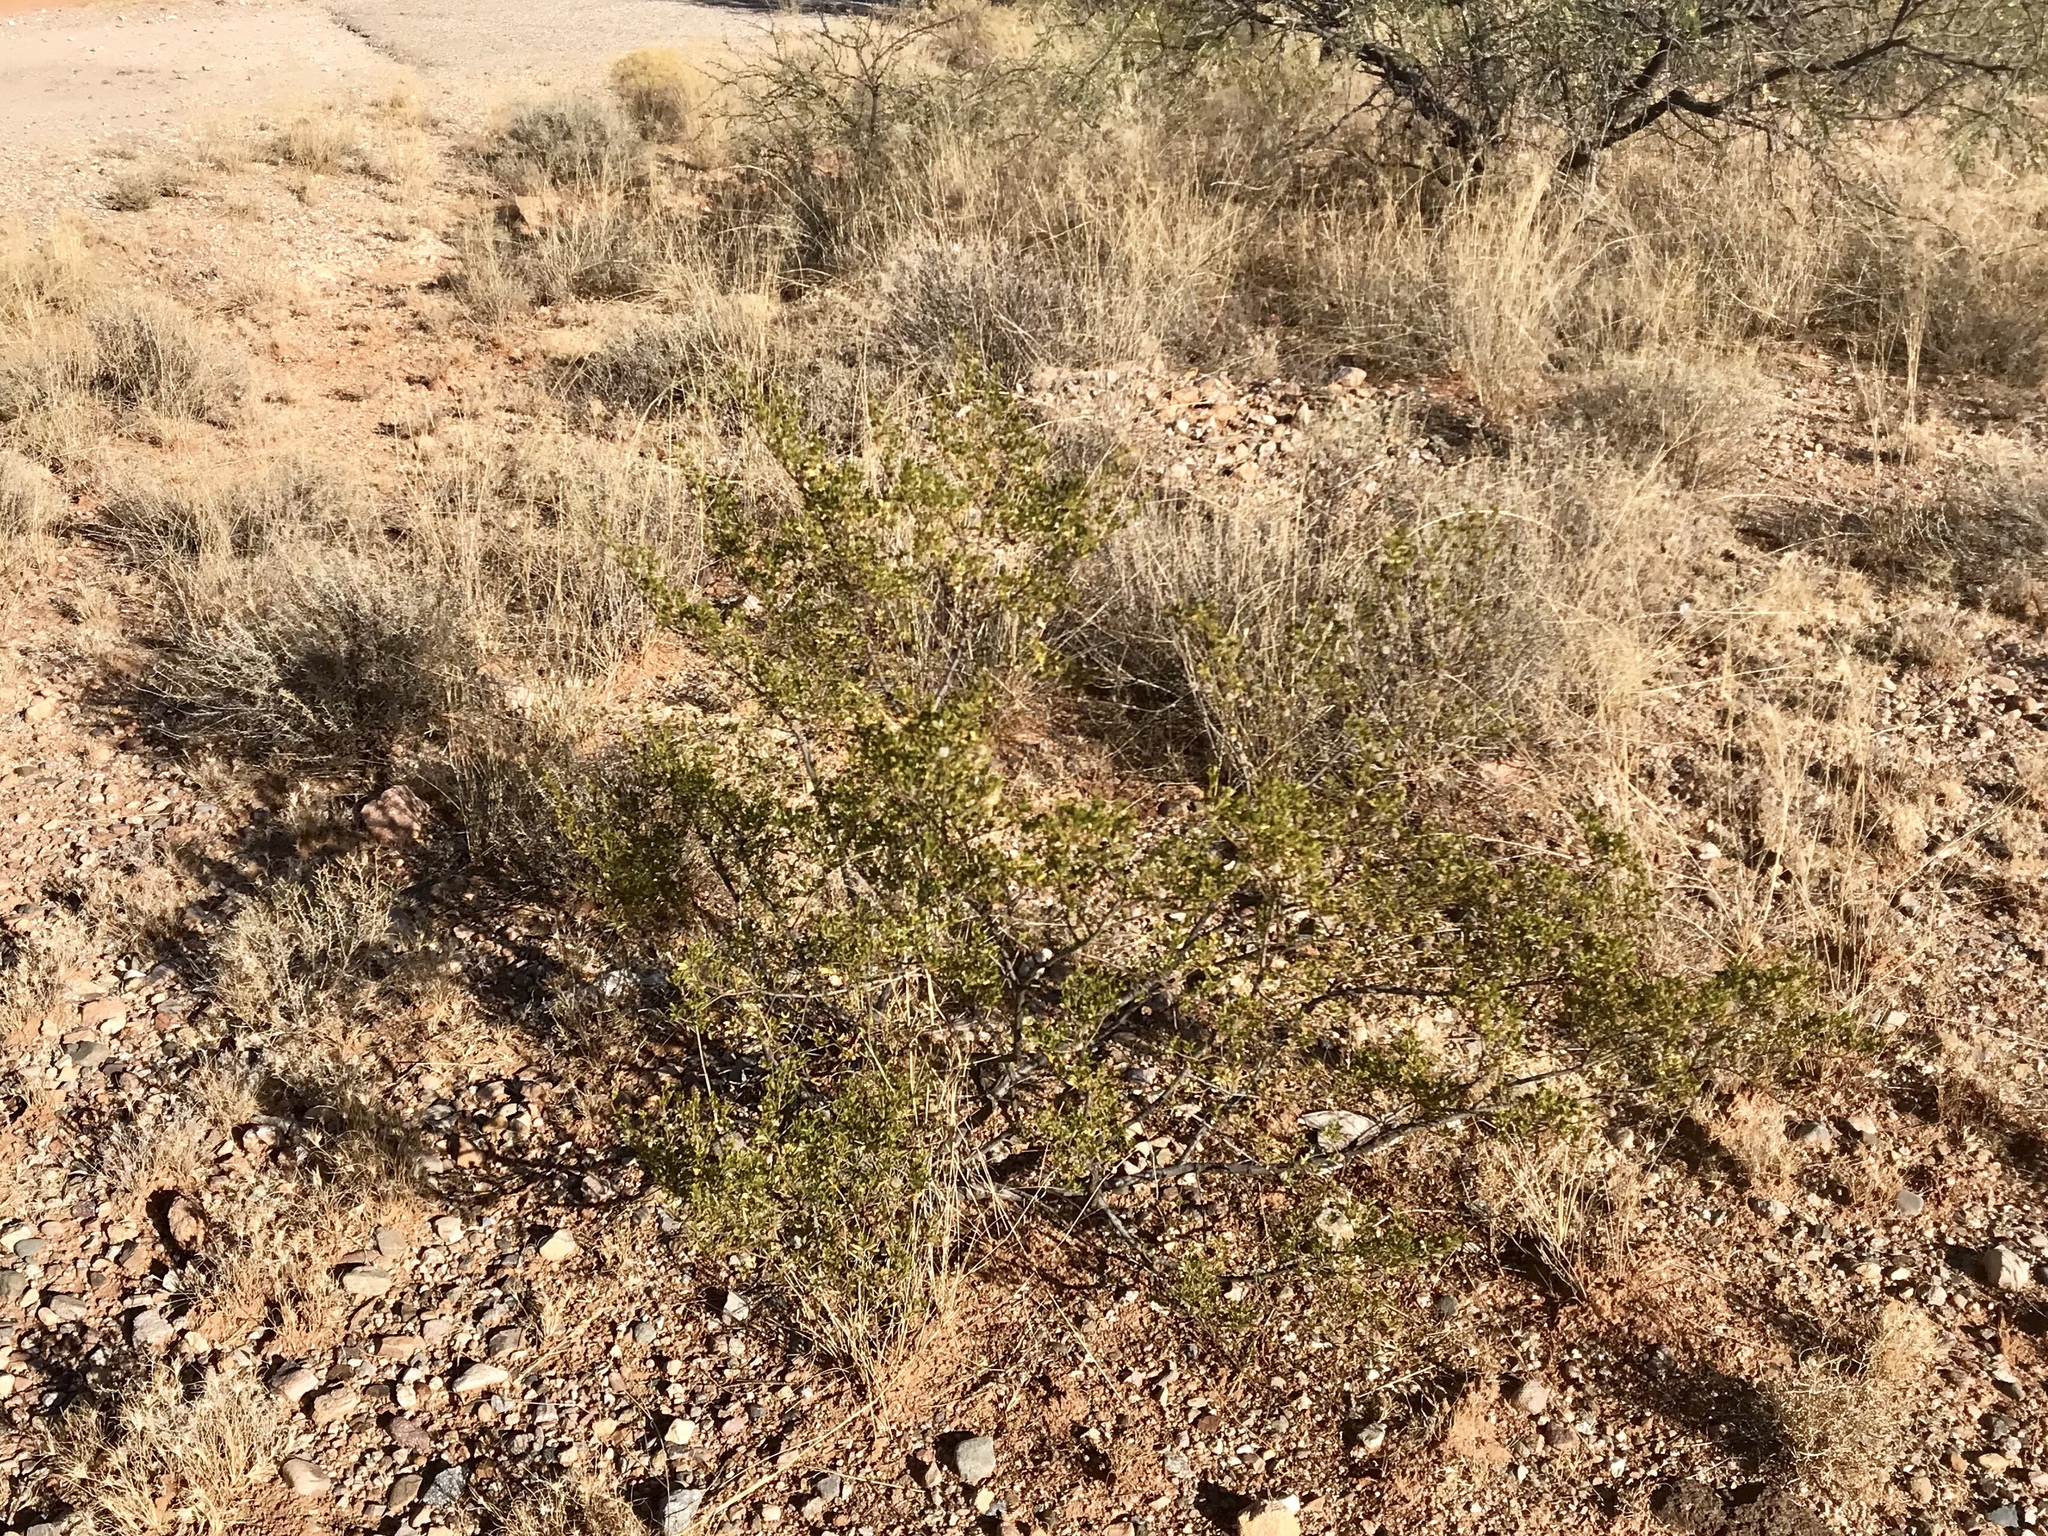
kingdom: Plantae
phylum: Tracheophyta
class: Magnoliopsida
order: Zygophyllales
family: Zygophyllaceae
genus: Larrea
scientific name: Larrea tridentata
